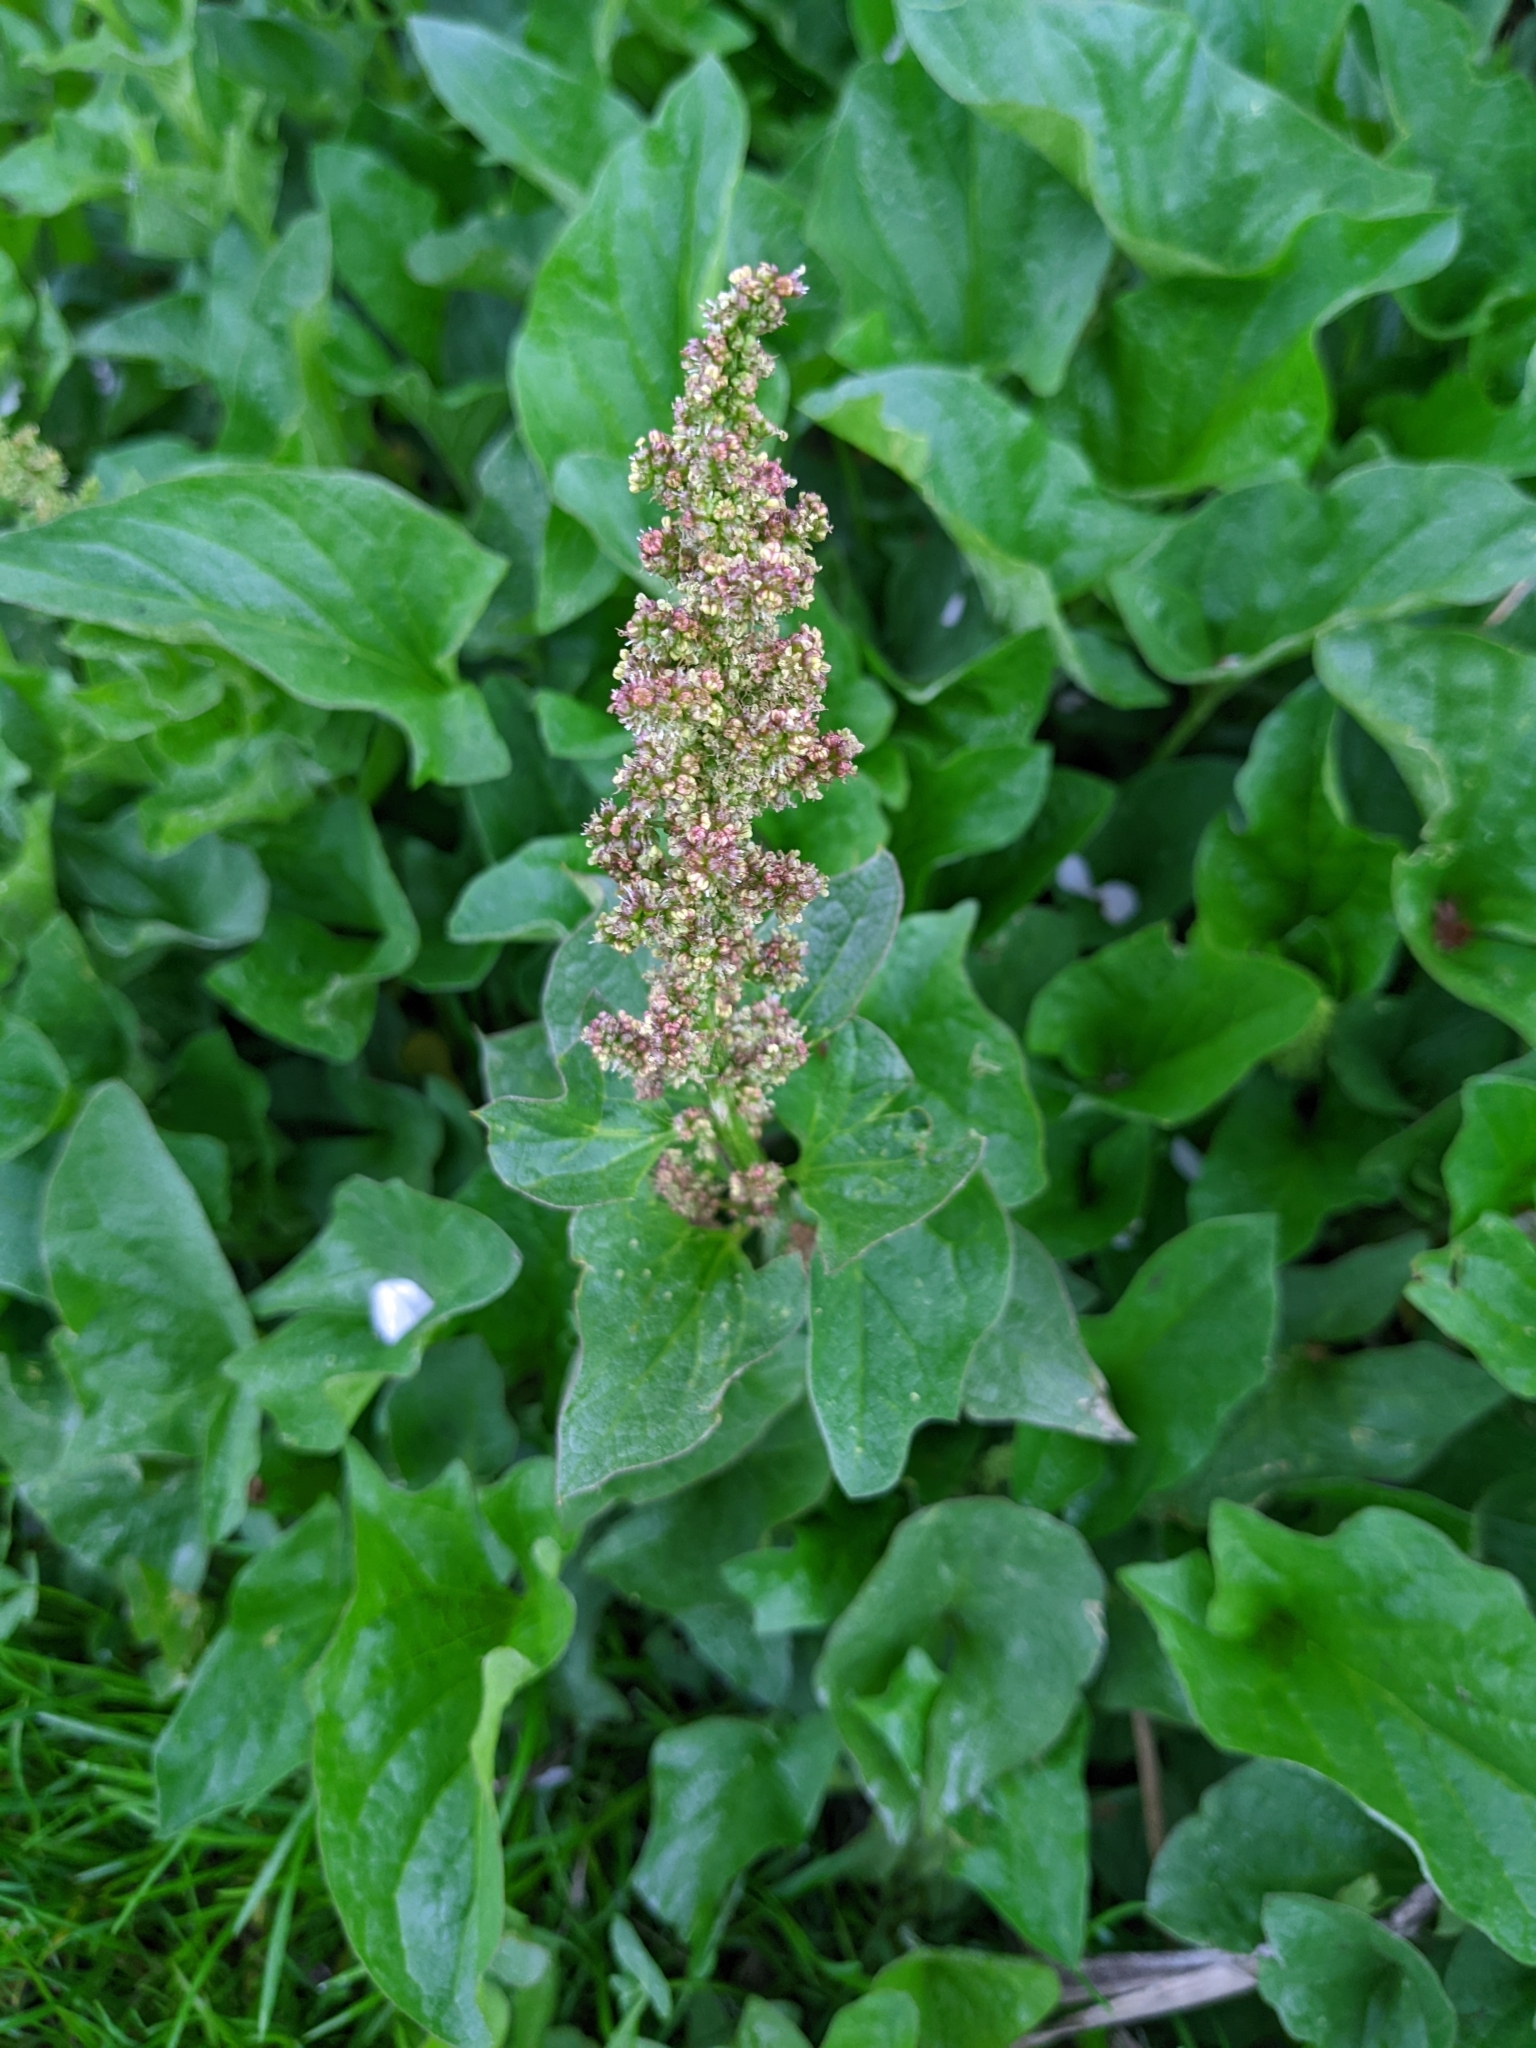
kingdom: Plantae
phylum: Tracheophyta
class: Magnoliopsida
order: Caryophyllales
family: Amaranthaceae
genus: Blitum
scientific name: Blitum bonus-henricus
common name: Good king henry
